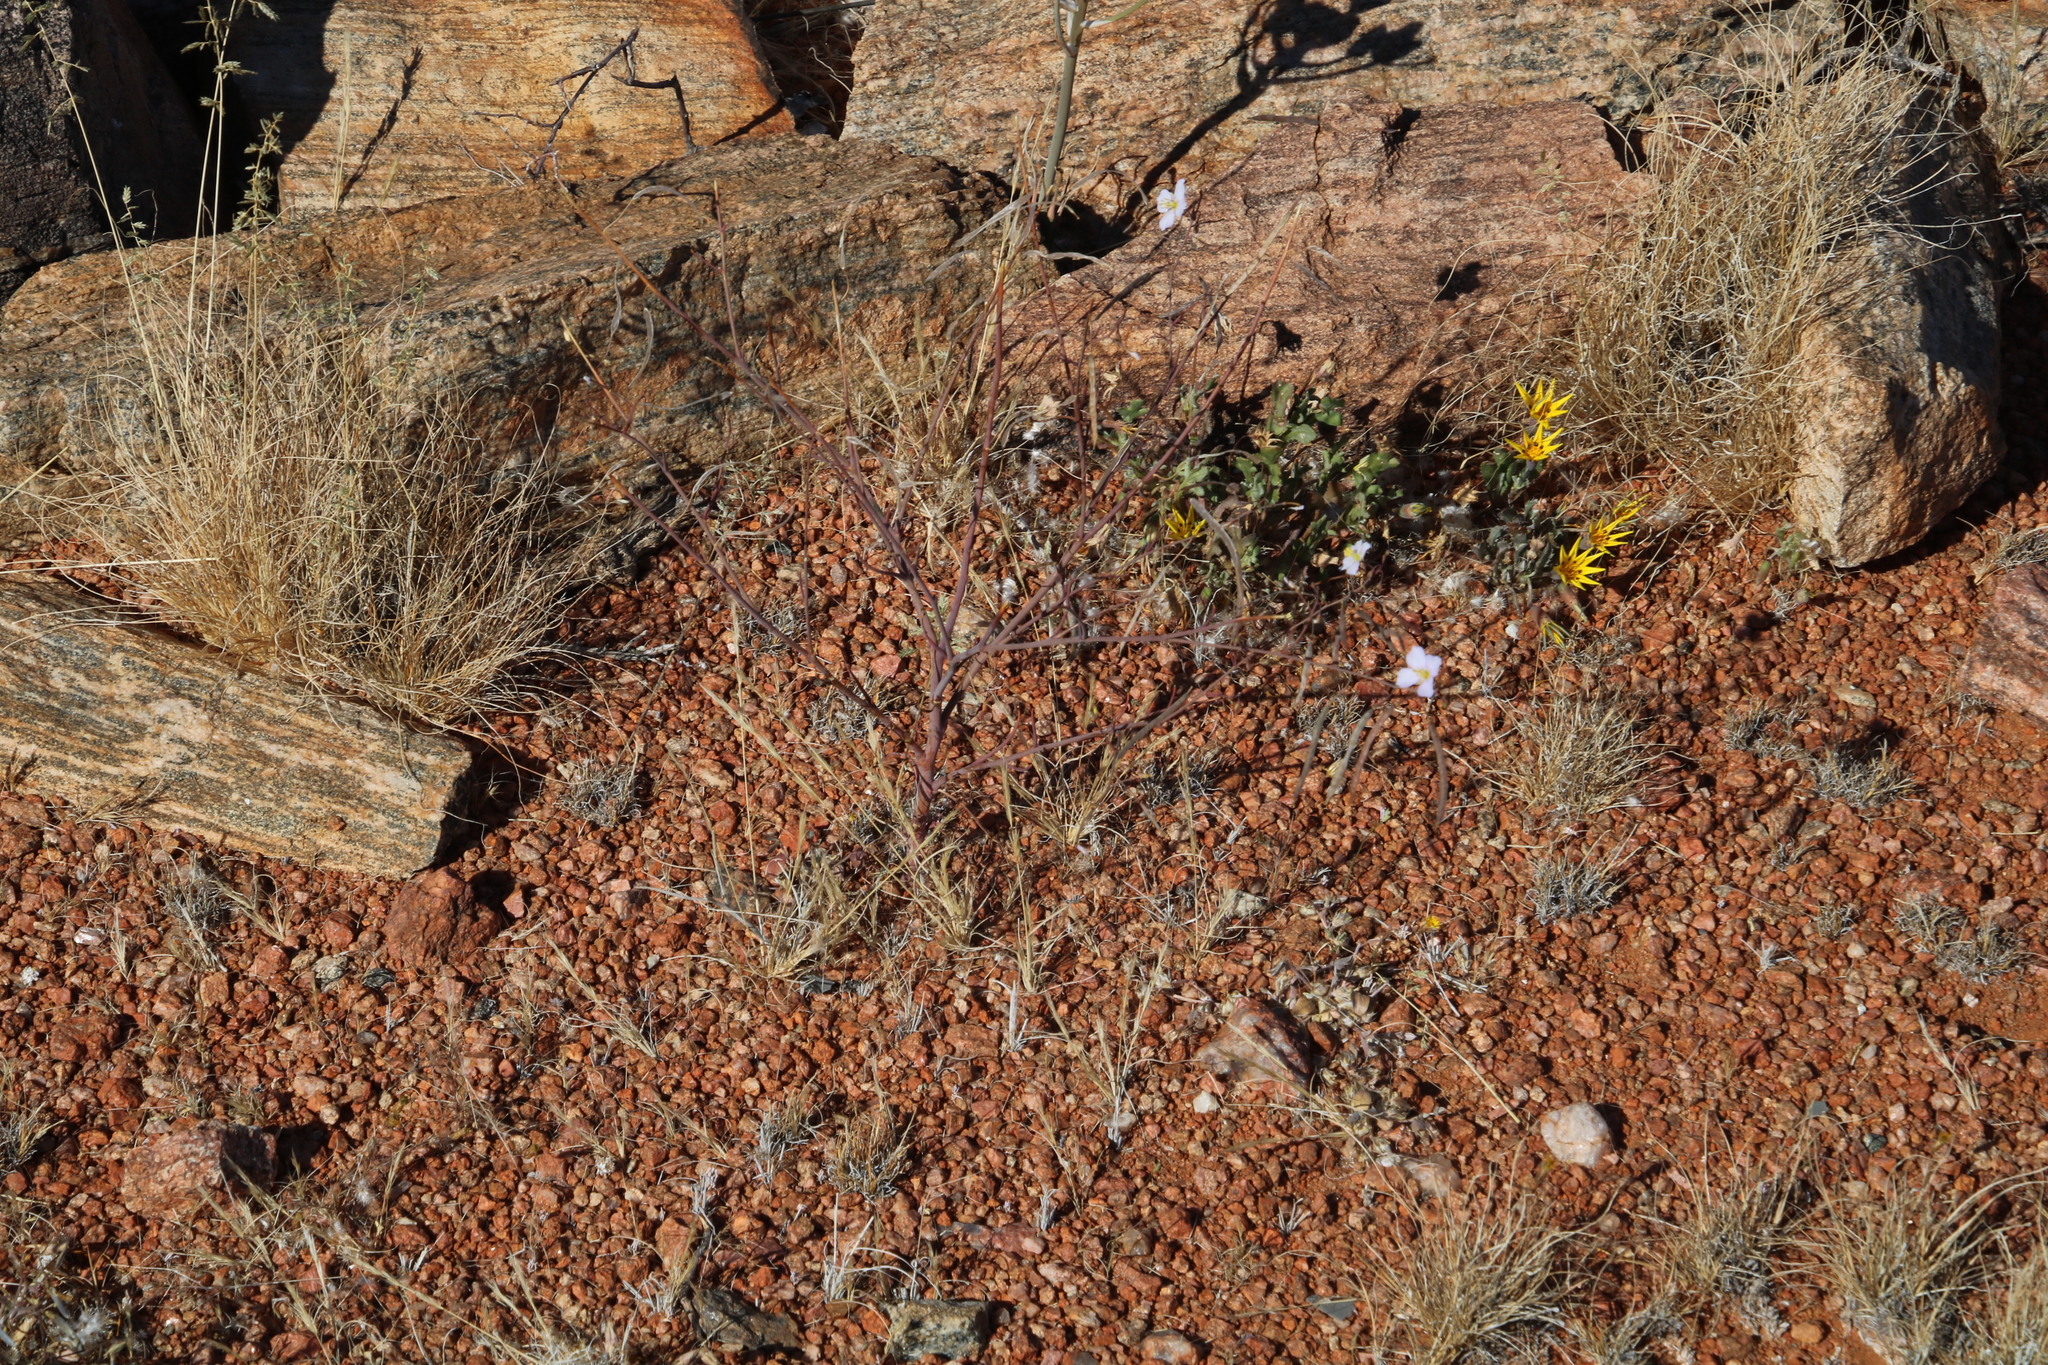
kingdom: Plantae
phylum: Tracheophyta
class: Magnoliopsida
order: Brassicales
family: Brassicaceae
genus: Heliophila
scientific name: Heliophila trifurca
